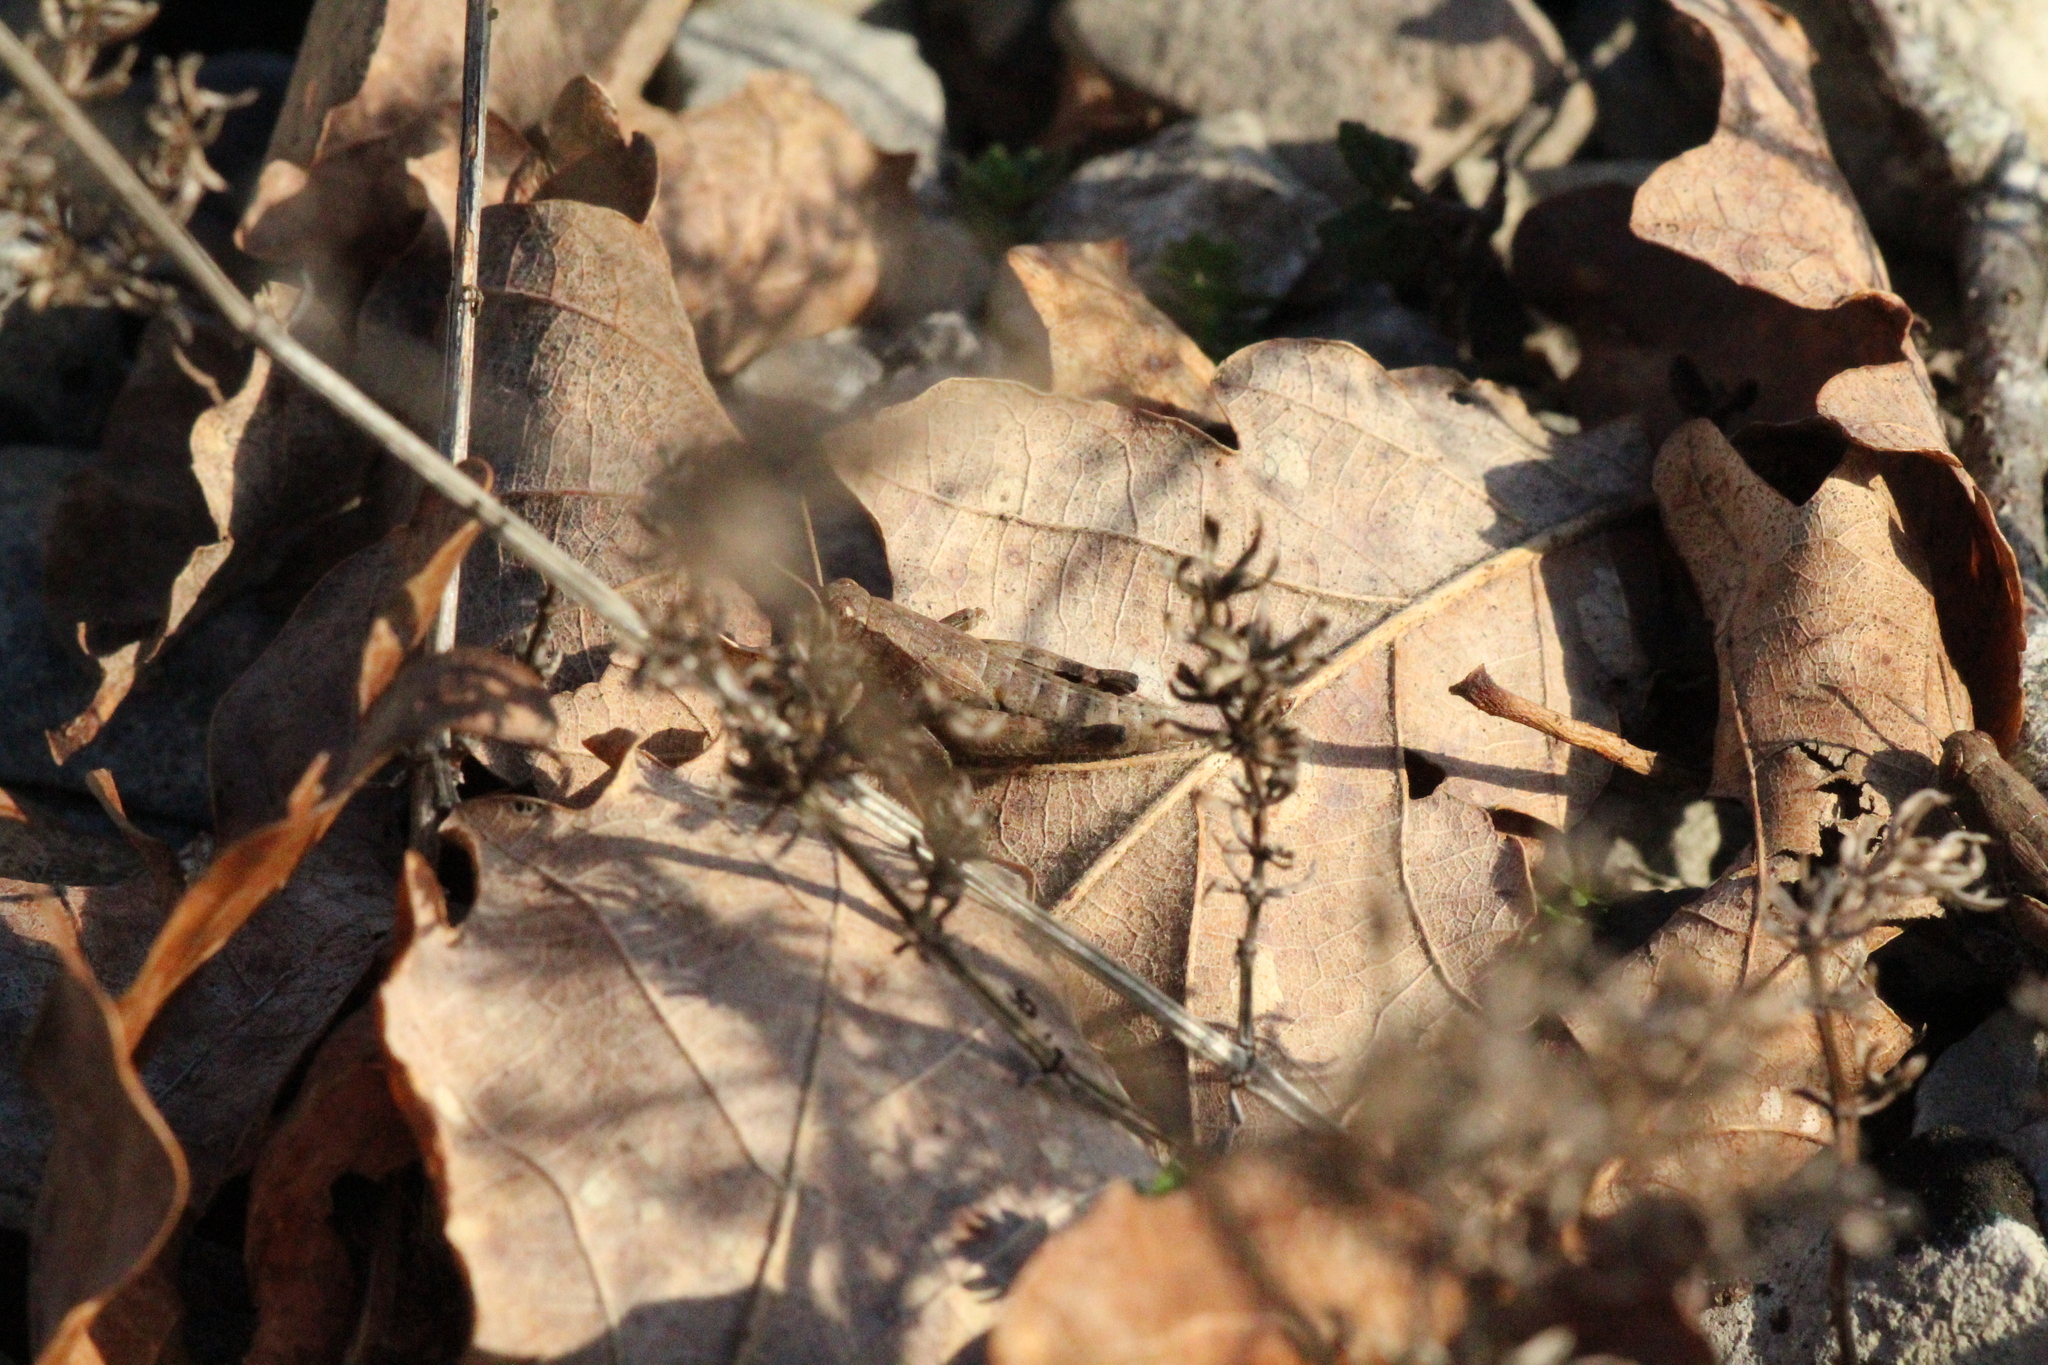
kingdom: Animalia
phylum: Arthropoda
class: Insecta
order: Orthoptera
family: Acrididae
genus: Pezotettix
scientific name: Pezotettix giornae
